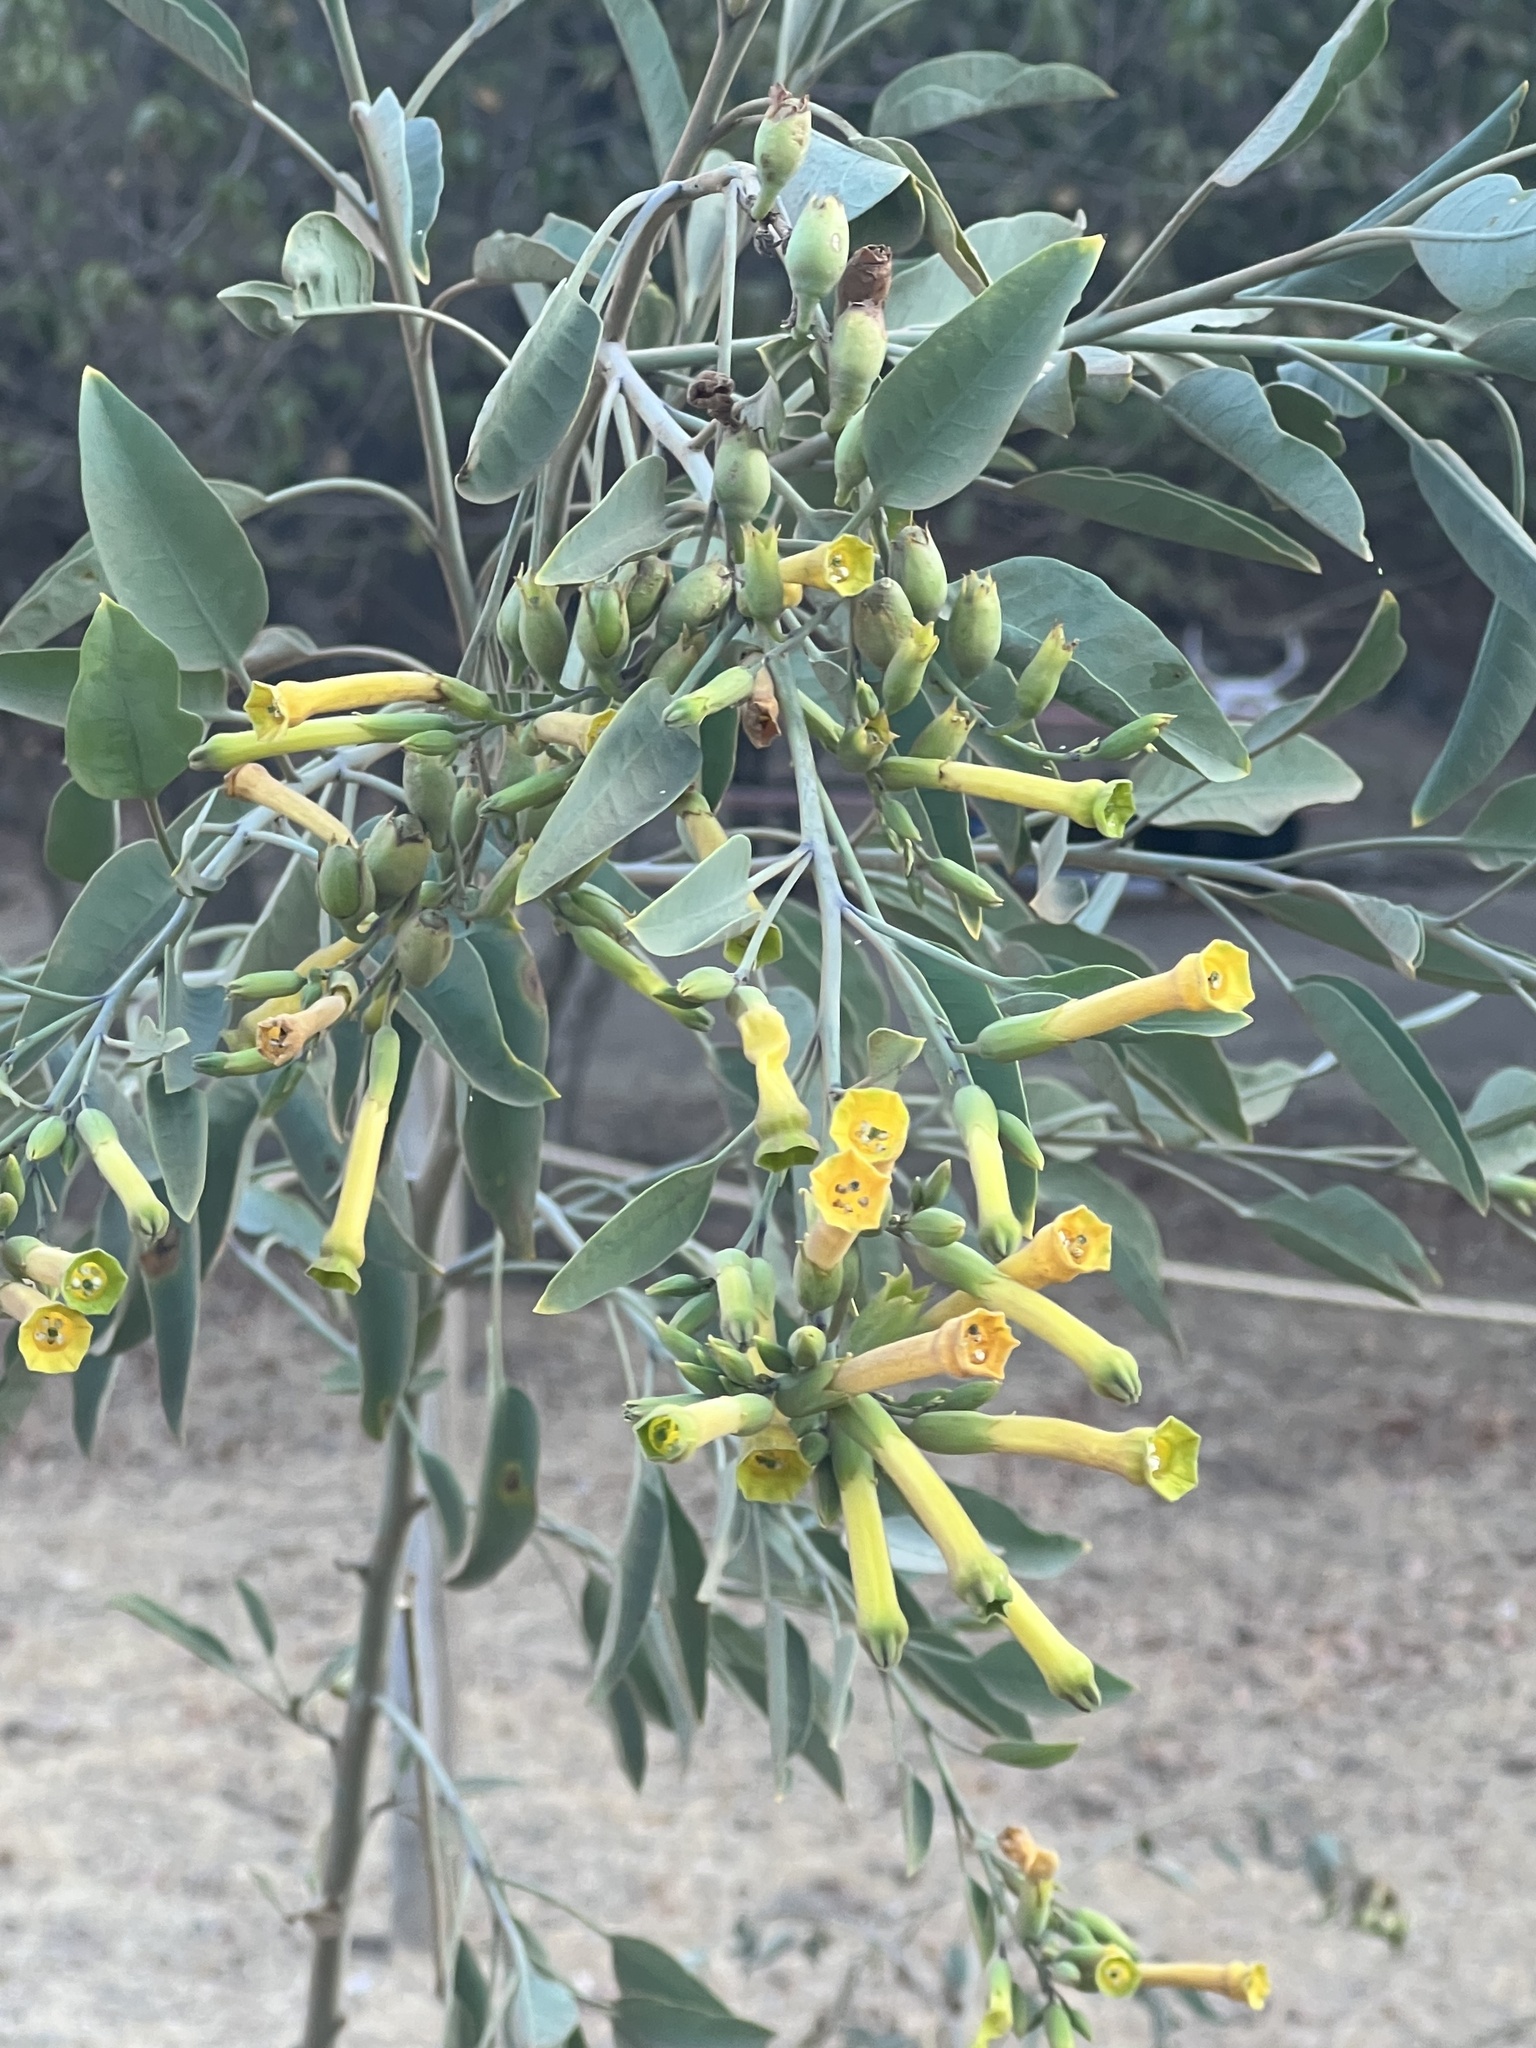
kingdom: Plantae
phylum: Tracheophyta
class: Magnoliopsida
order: Solanales
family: Solanaceae
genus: Nicotiana
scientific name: Nicotiana glauca
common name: Tree tobacco
